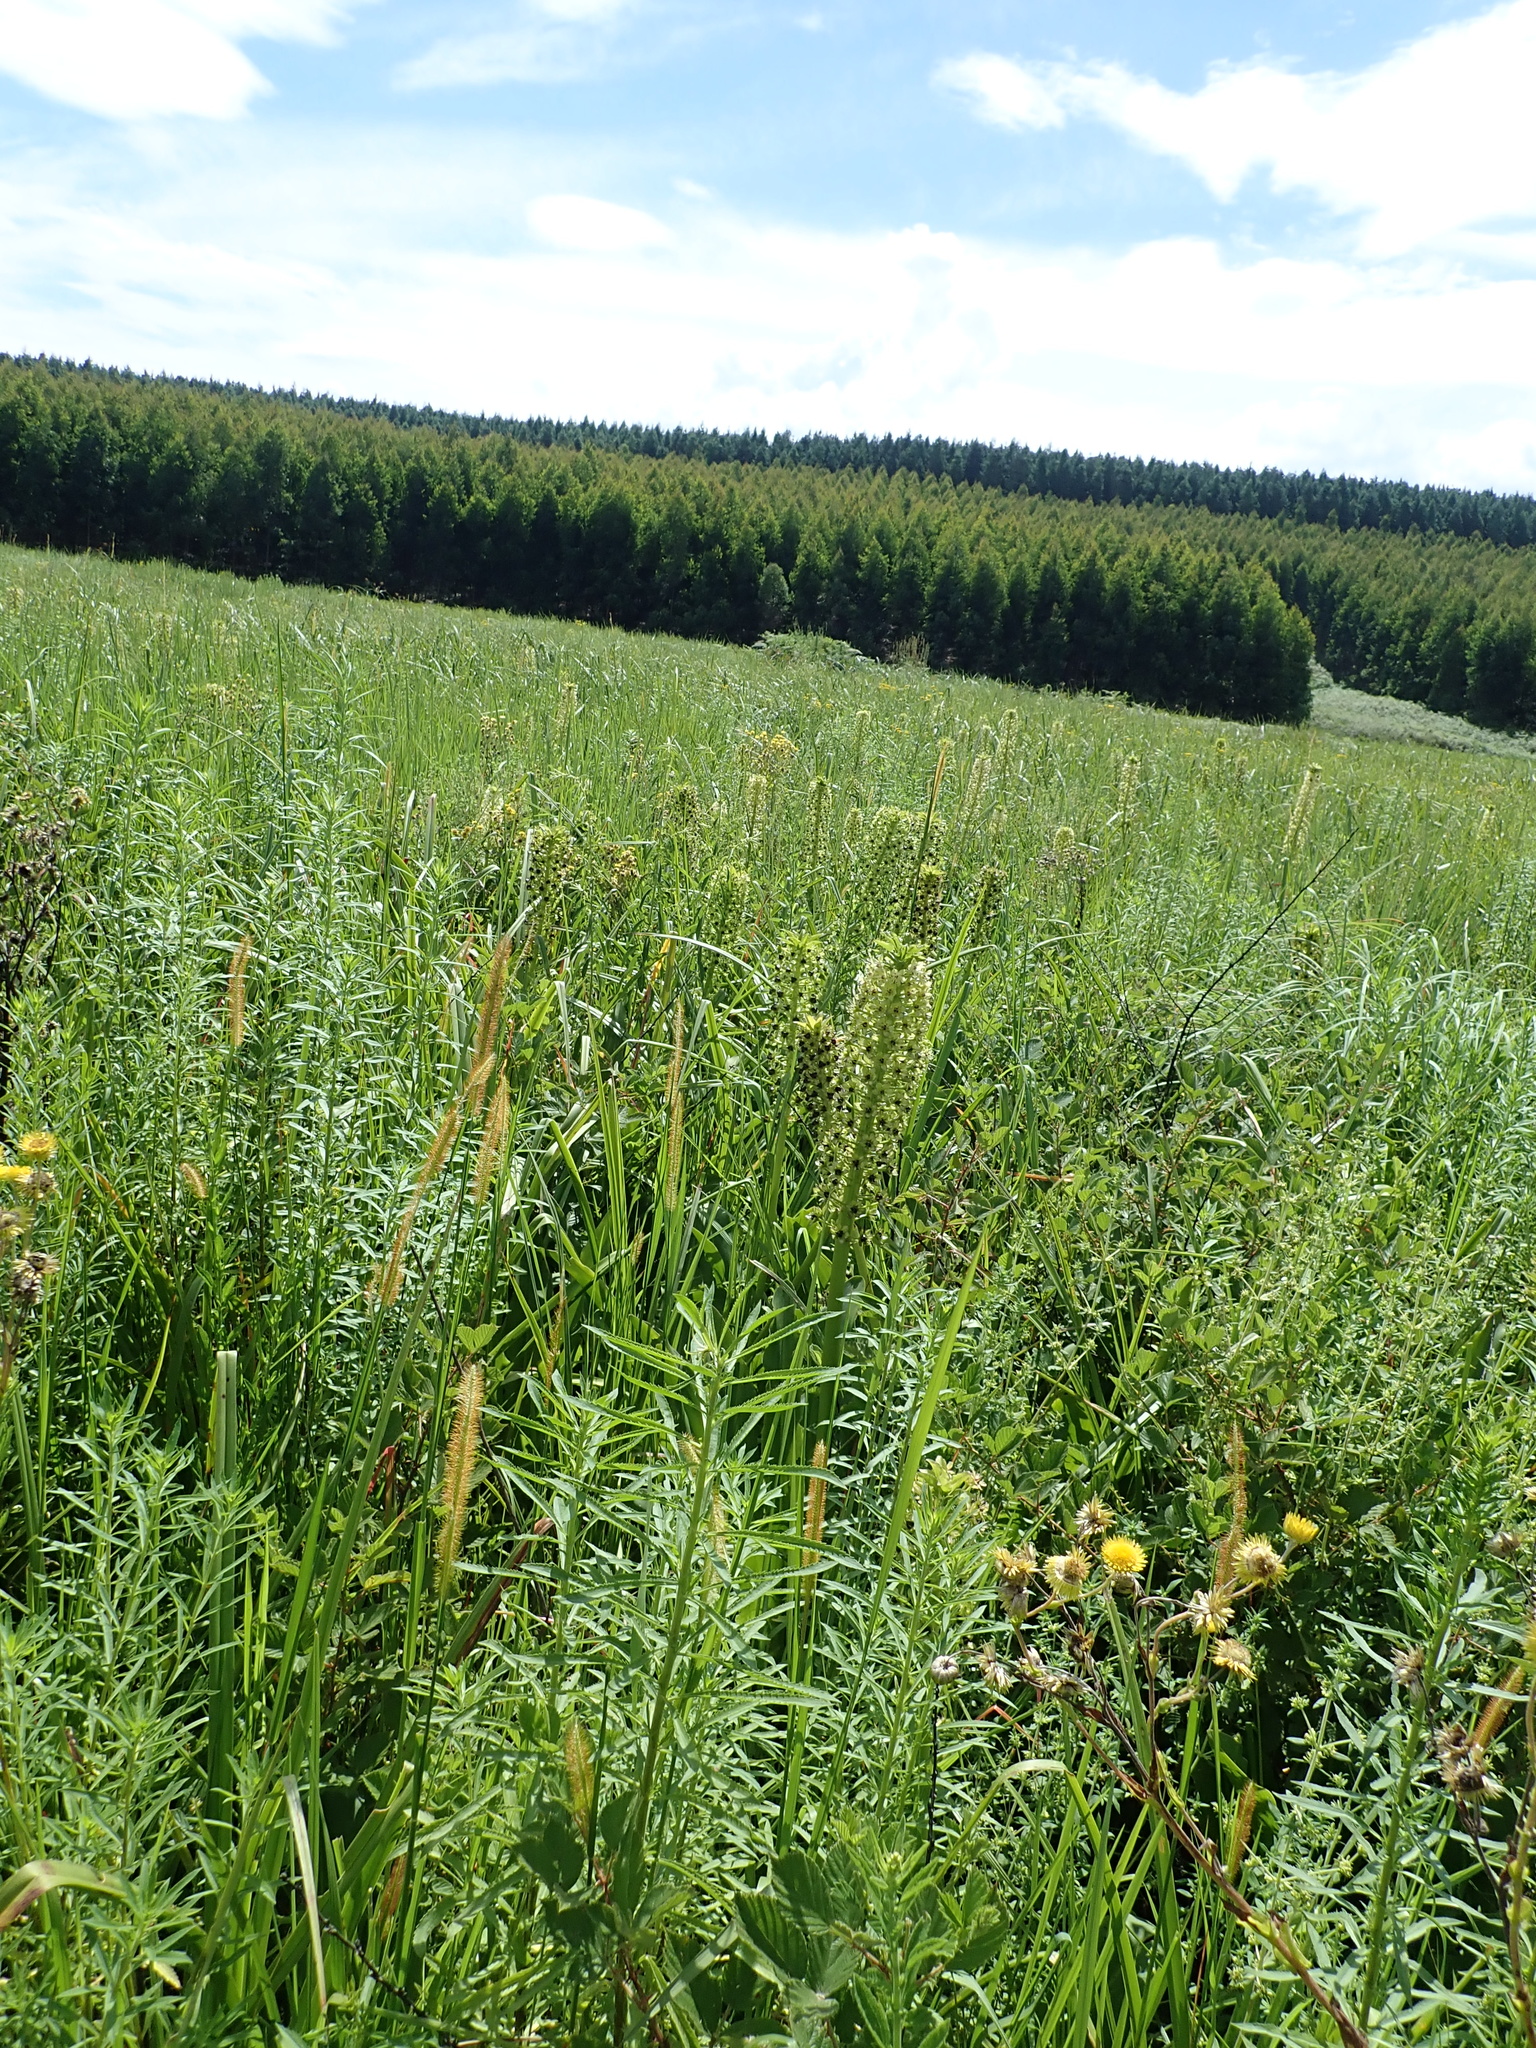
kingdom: Plantae
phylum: Tracheophyta
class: Liliopsida
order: Asparagales
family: Asparagaceae
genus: Eucomis
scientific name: Eucomis comosa
